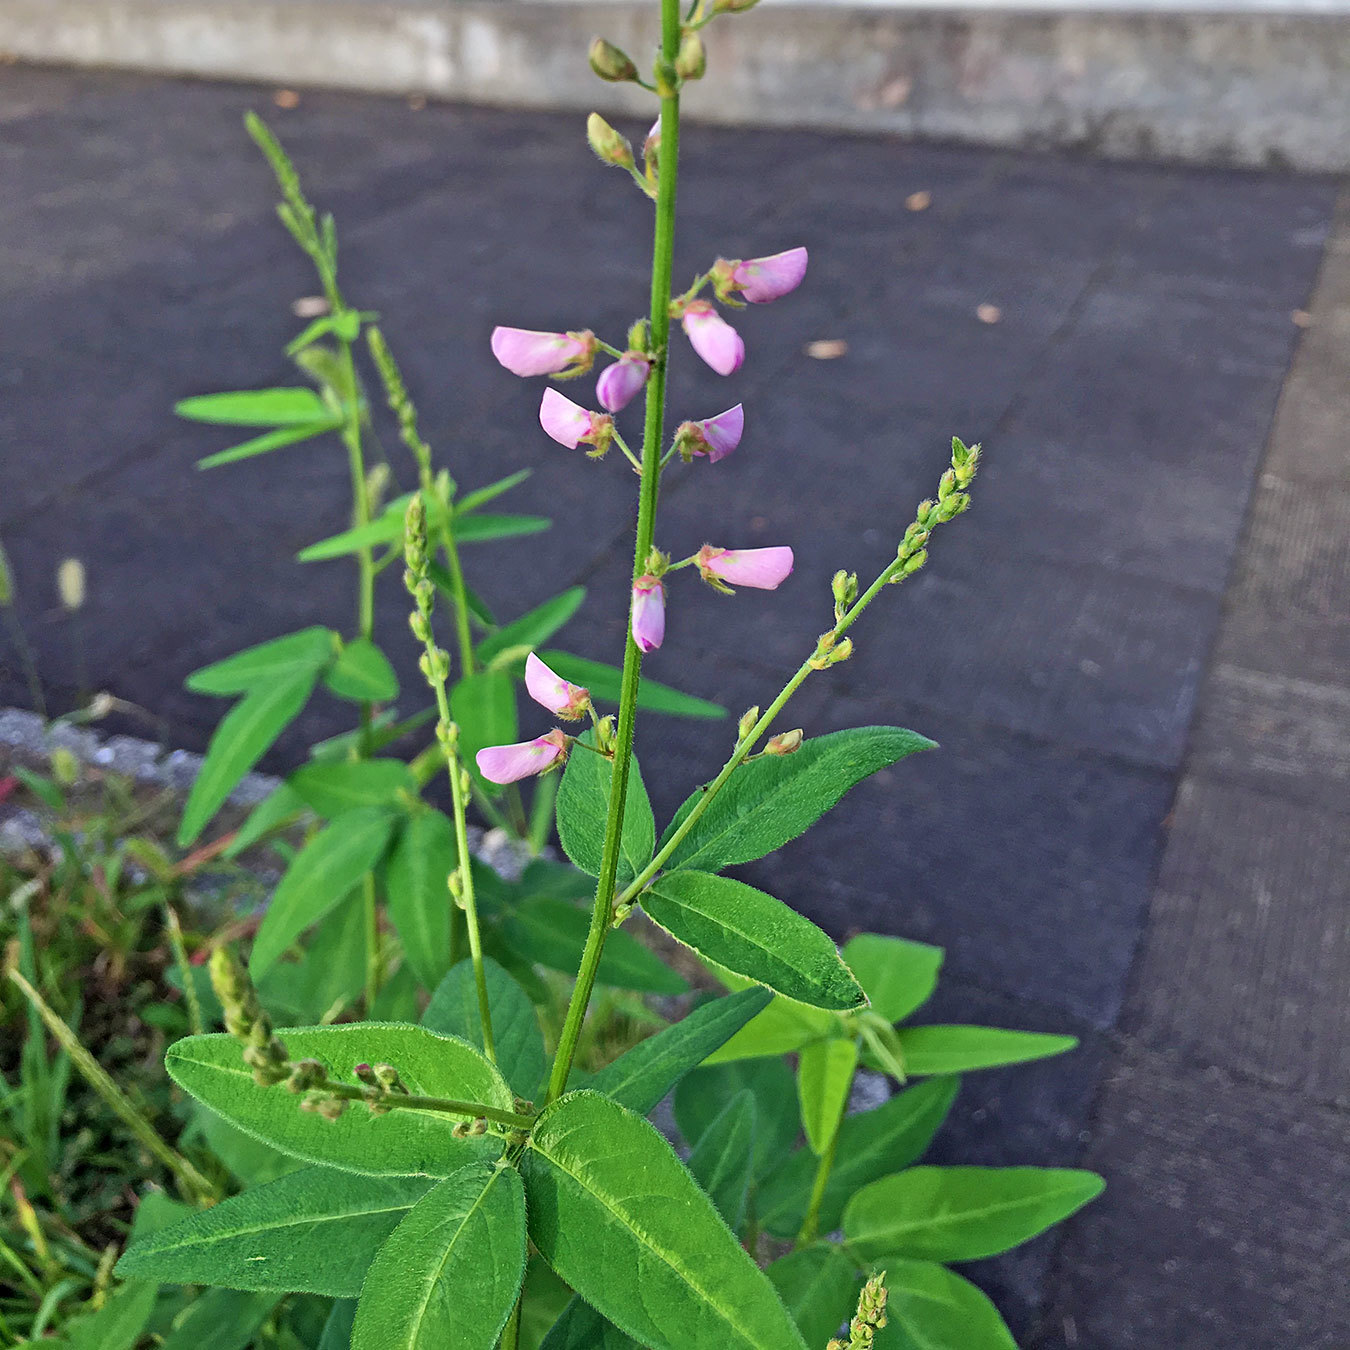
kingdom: Plantae
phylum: Tracheophyta
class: Magnoliopsida
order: Fabales
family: Fabaceae
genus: Desmodium
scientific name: Desmodium paniculatum
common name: Panicled tick-clover
